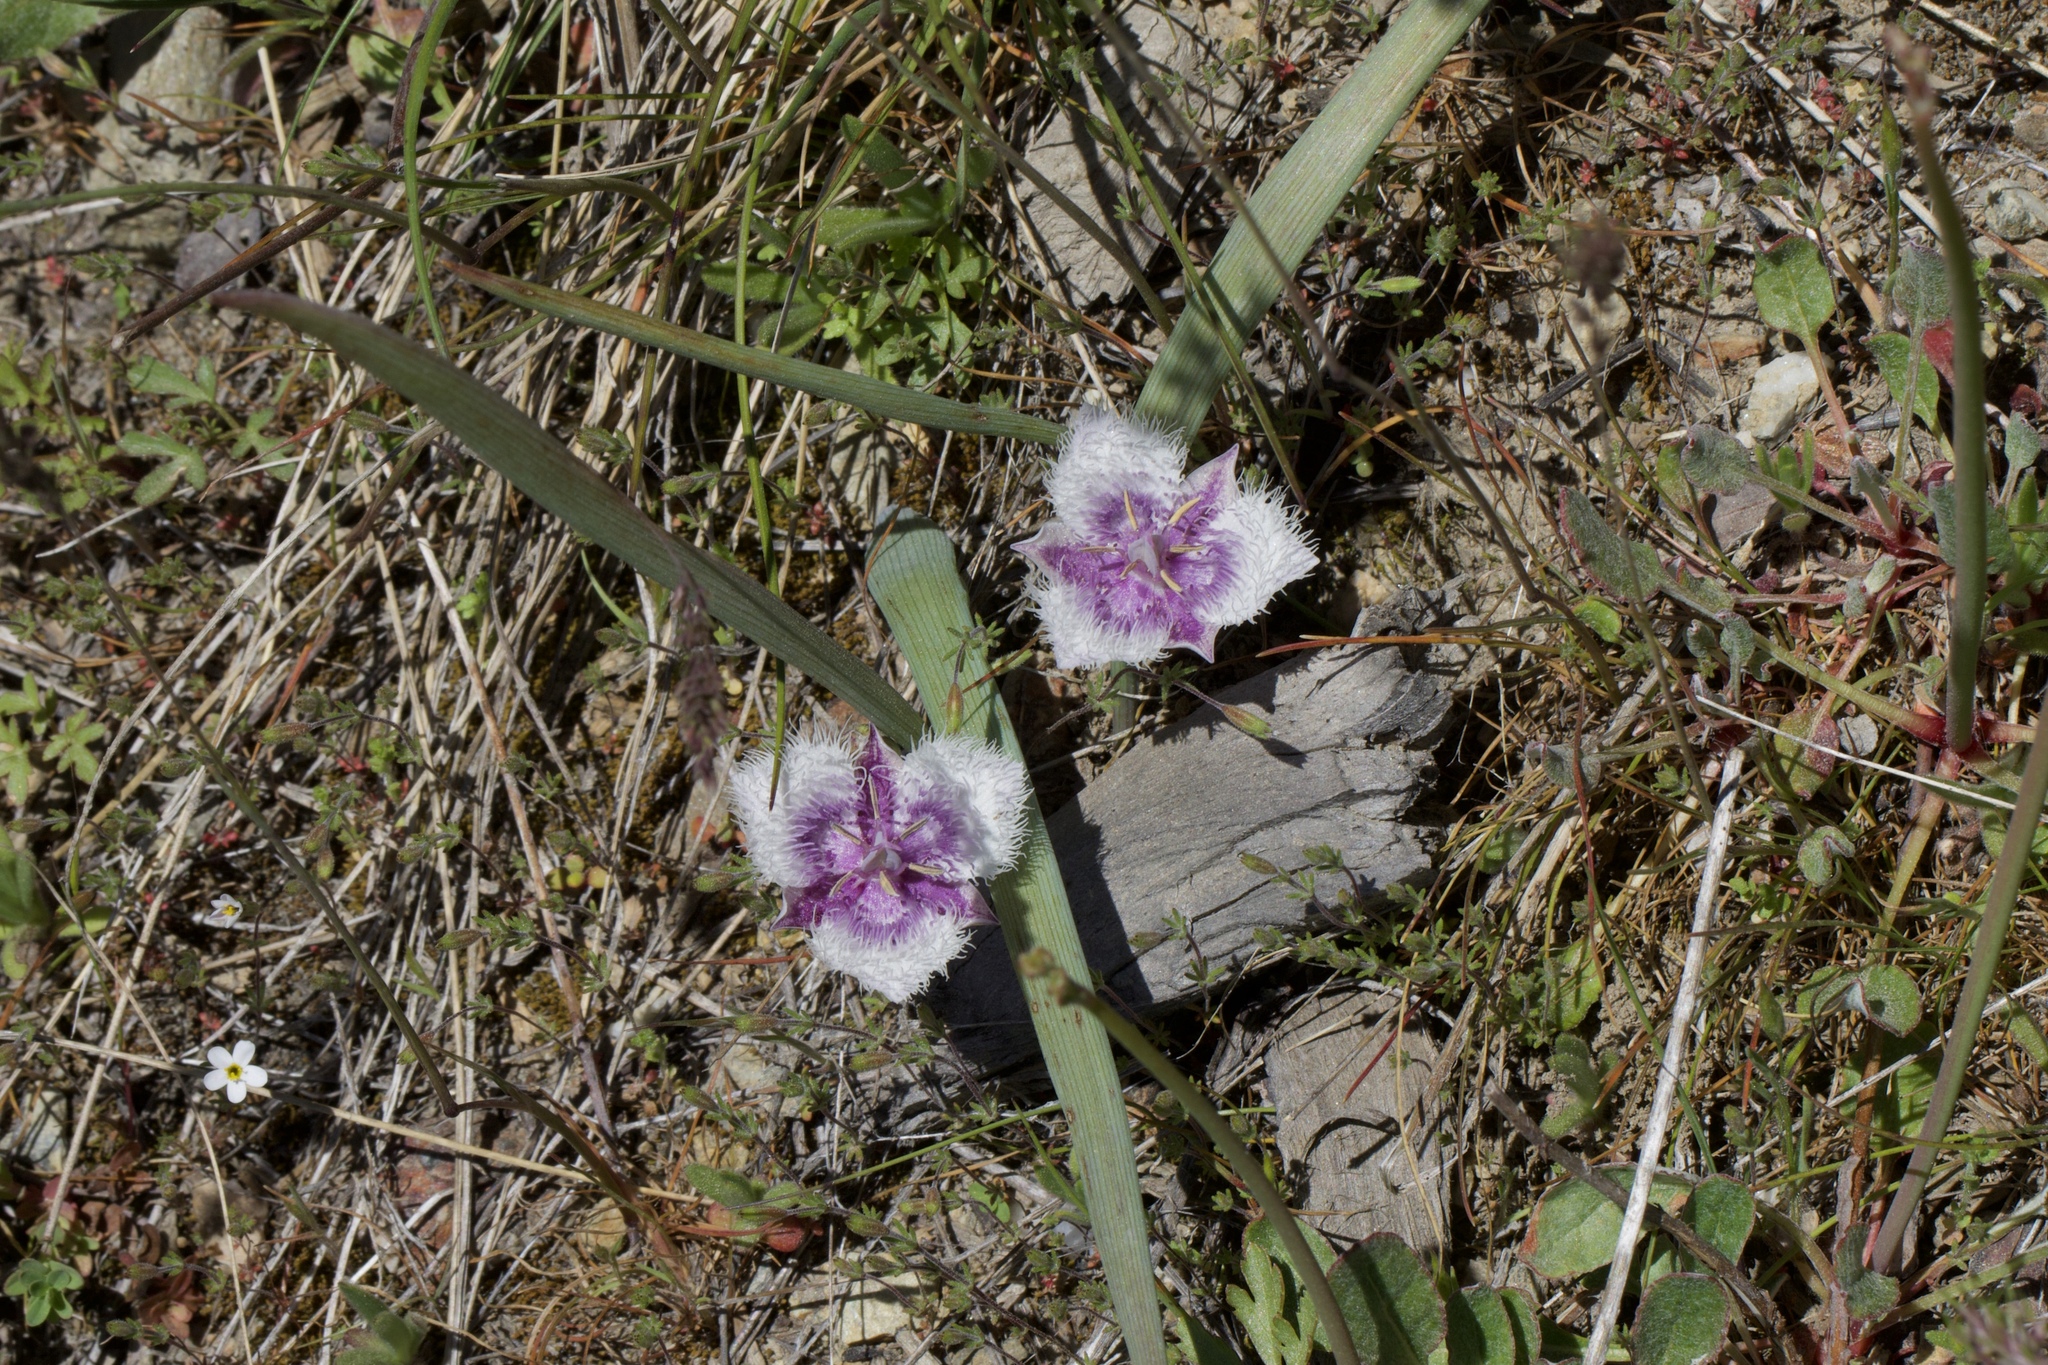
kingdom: Plantae
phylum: Tracheophyta
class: Liliopsida
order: Liliales
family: Liliaceae
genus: Calochortus
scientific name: Calochortus coeruleus
